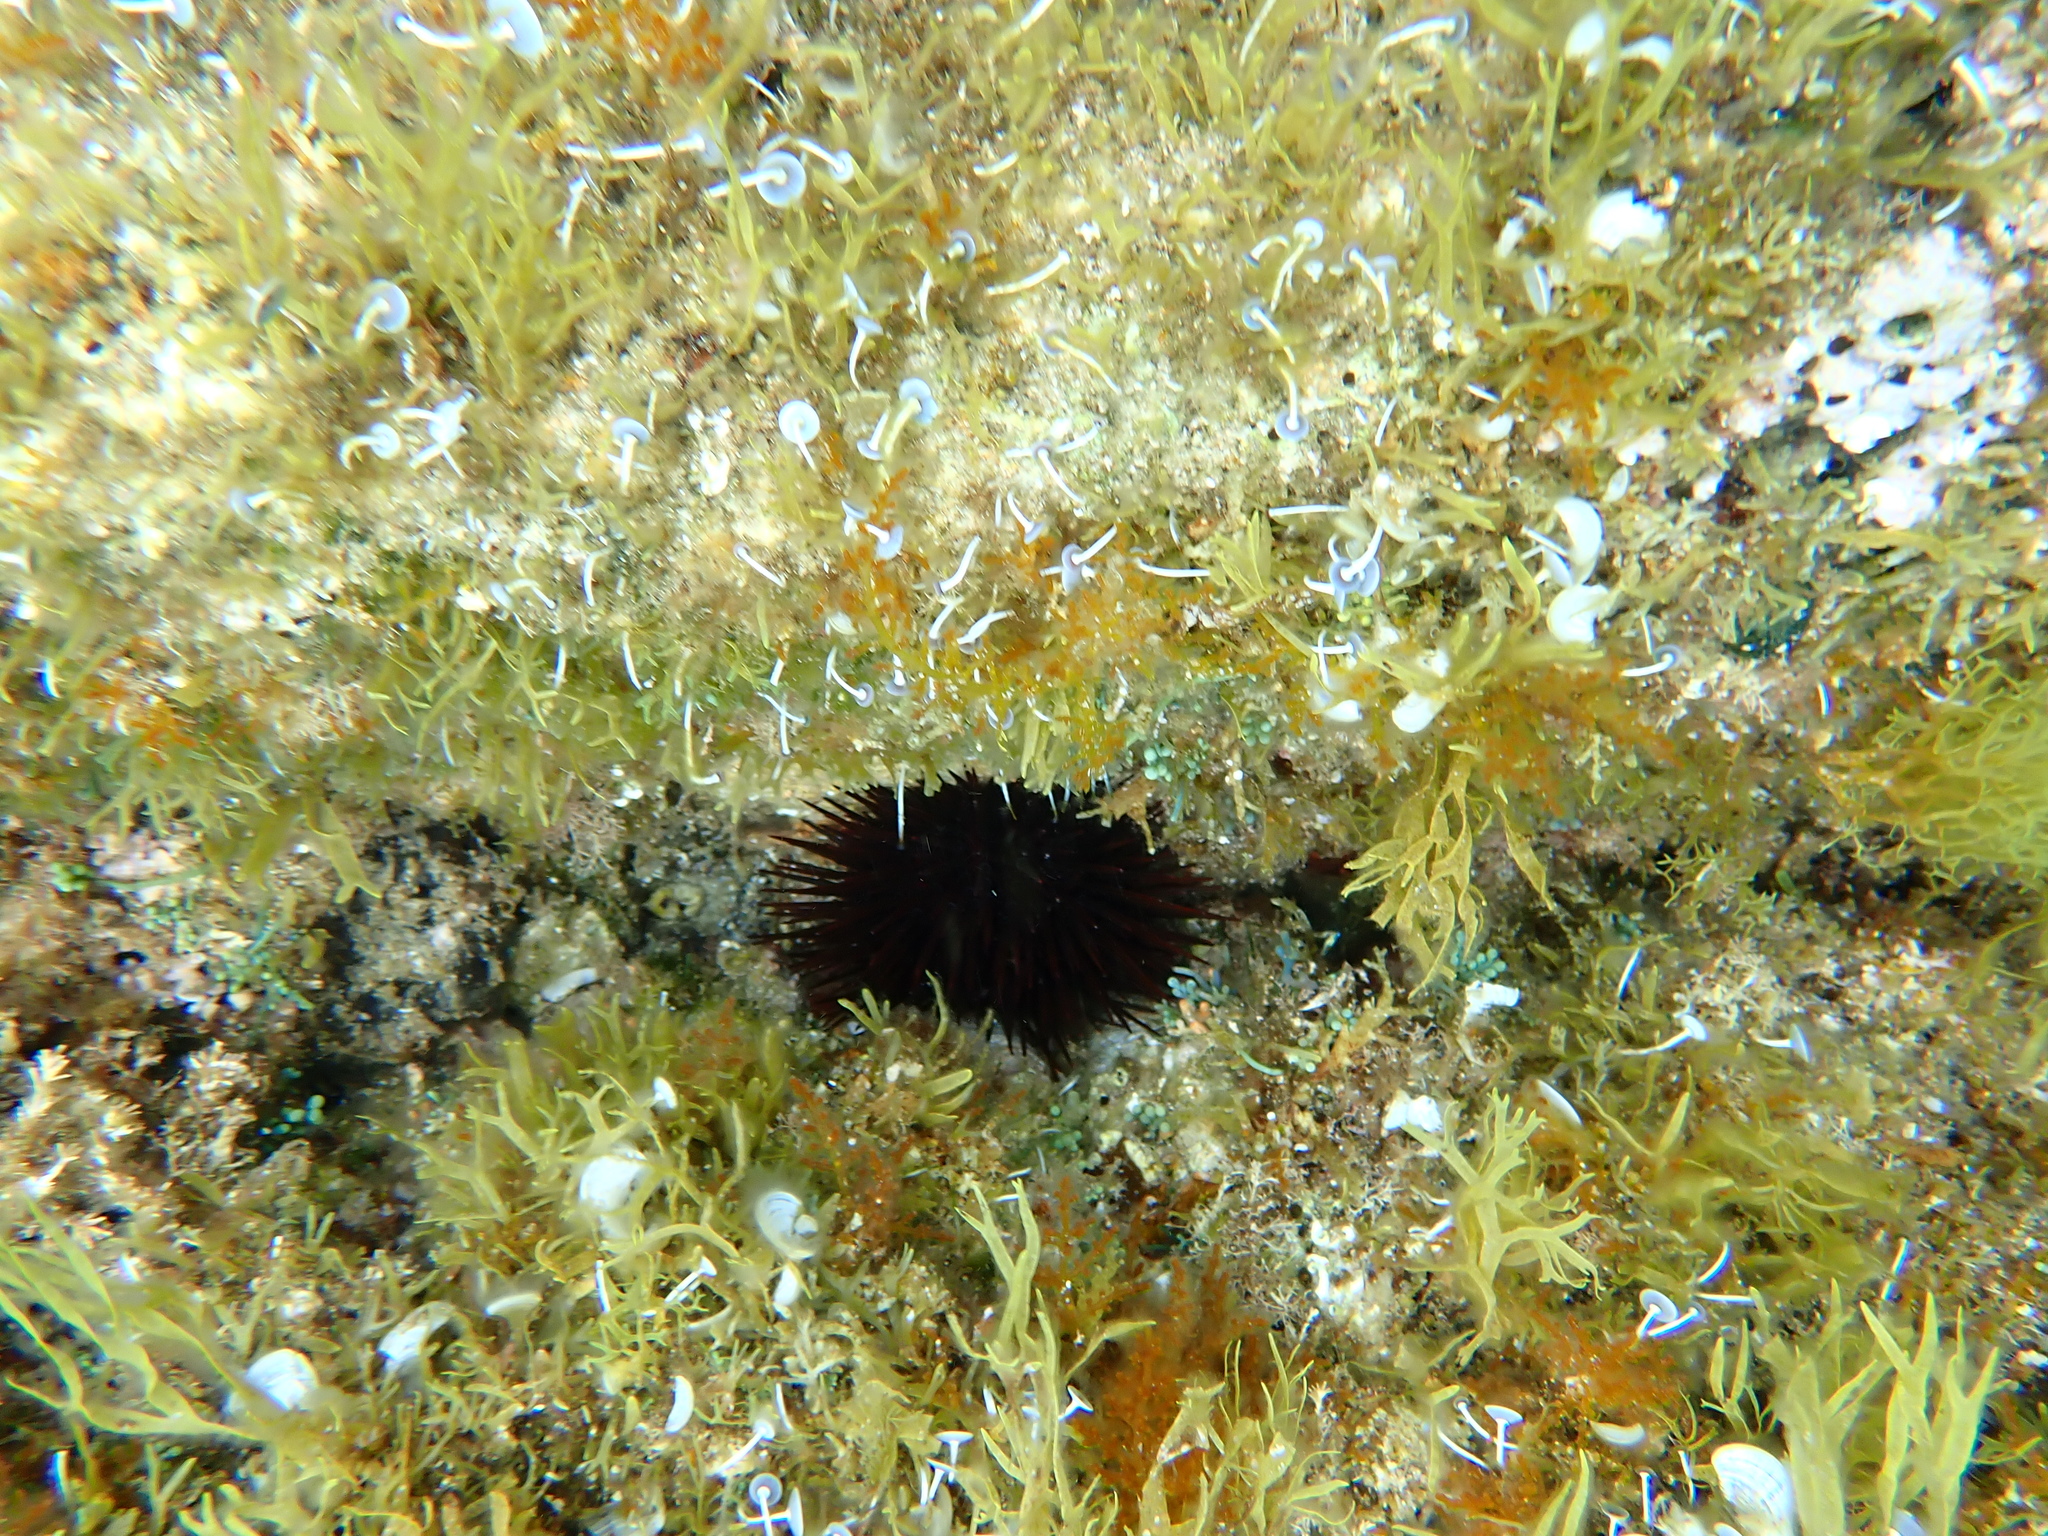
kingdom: Animalia
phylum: Echinodermata
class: Echinoidea
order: Arbacioida
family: Arbaciidae
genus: Arbacia
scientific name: Arbacia lixula
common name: Black sea urchin
